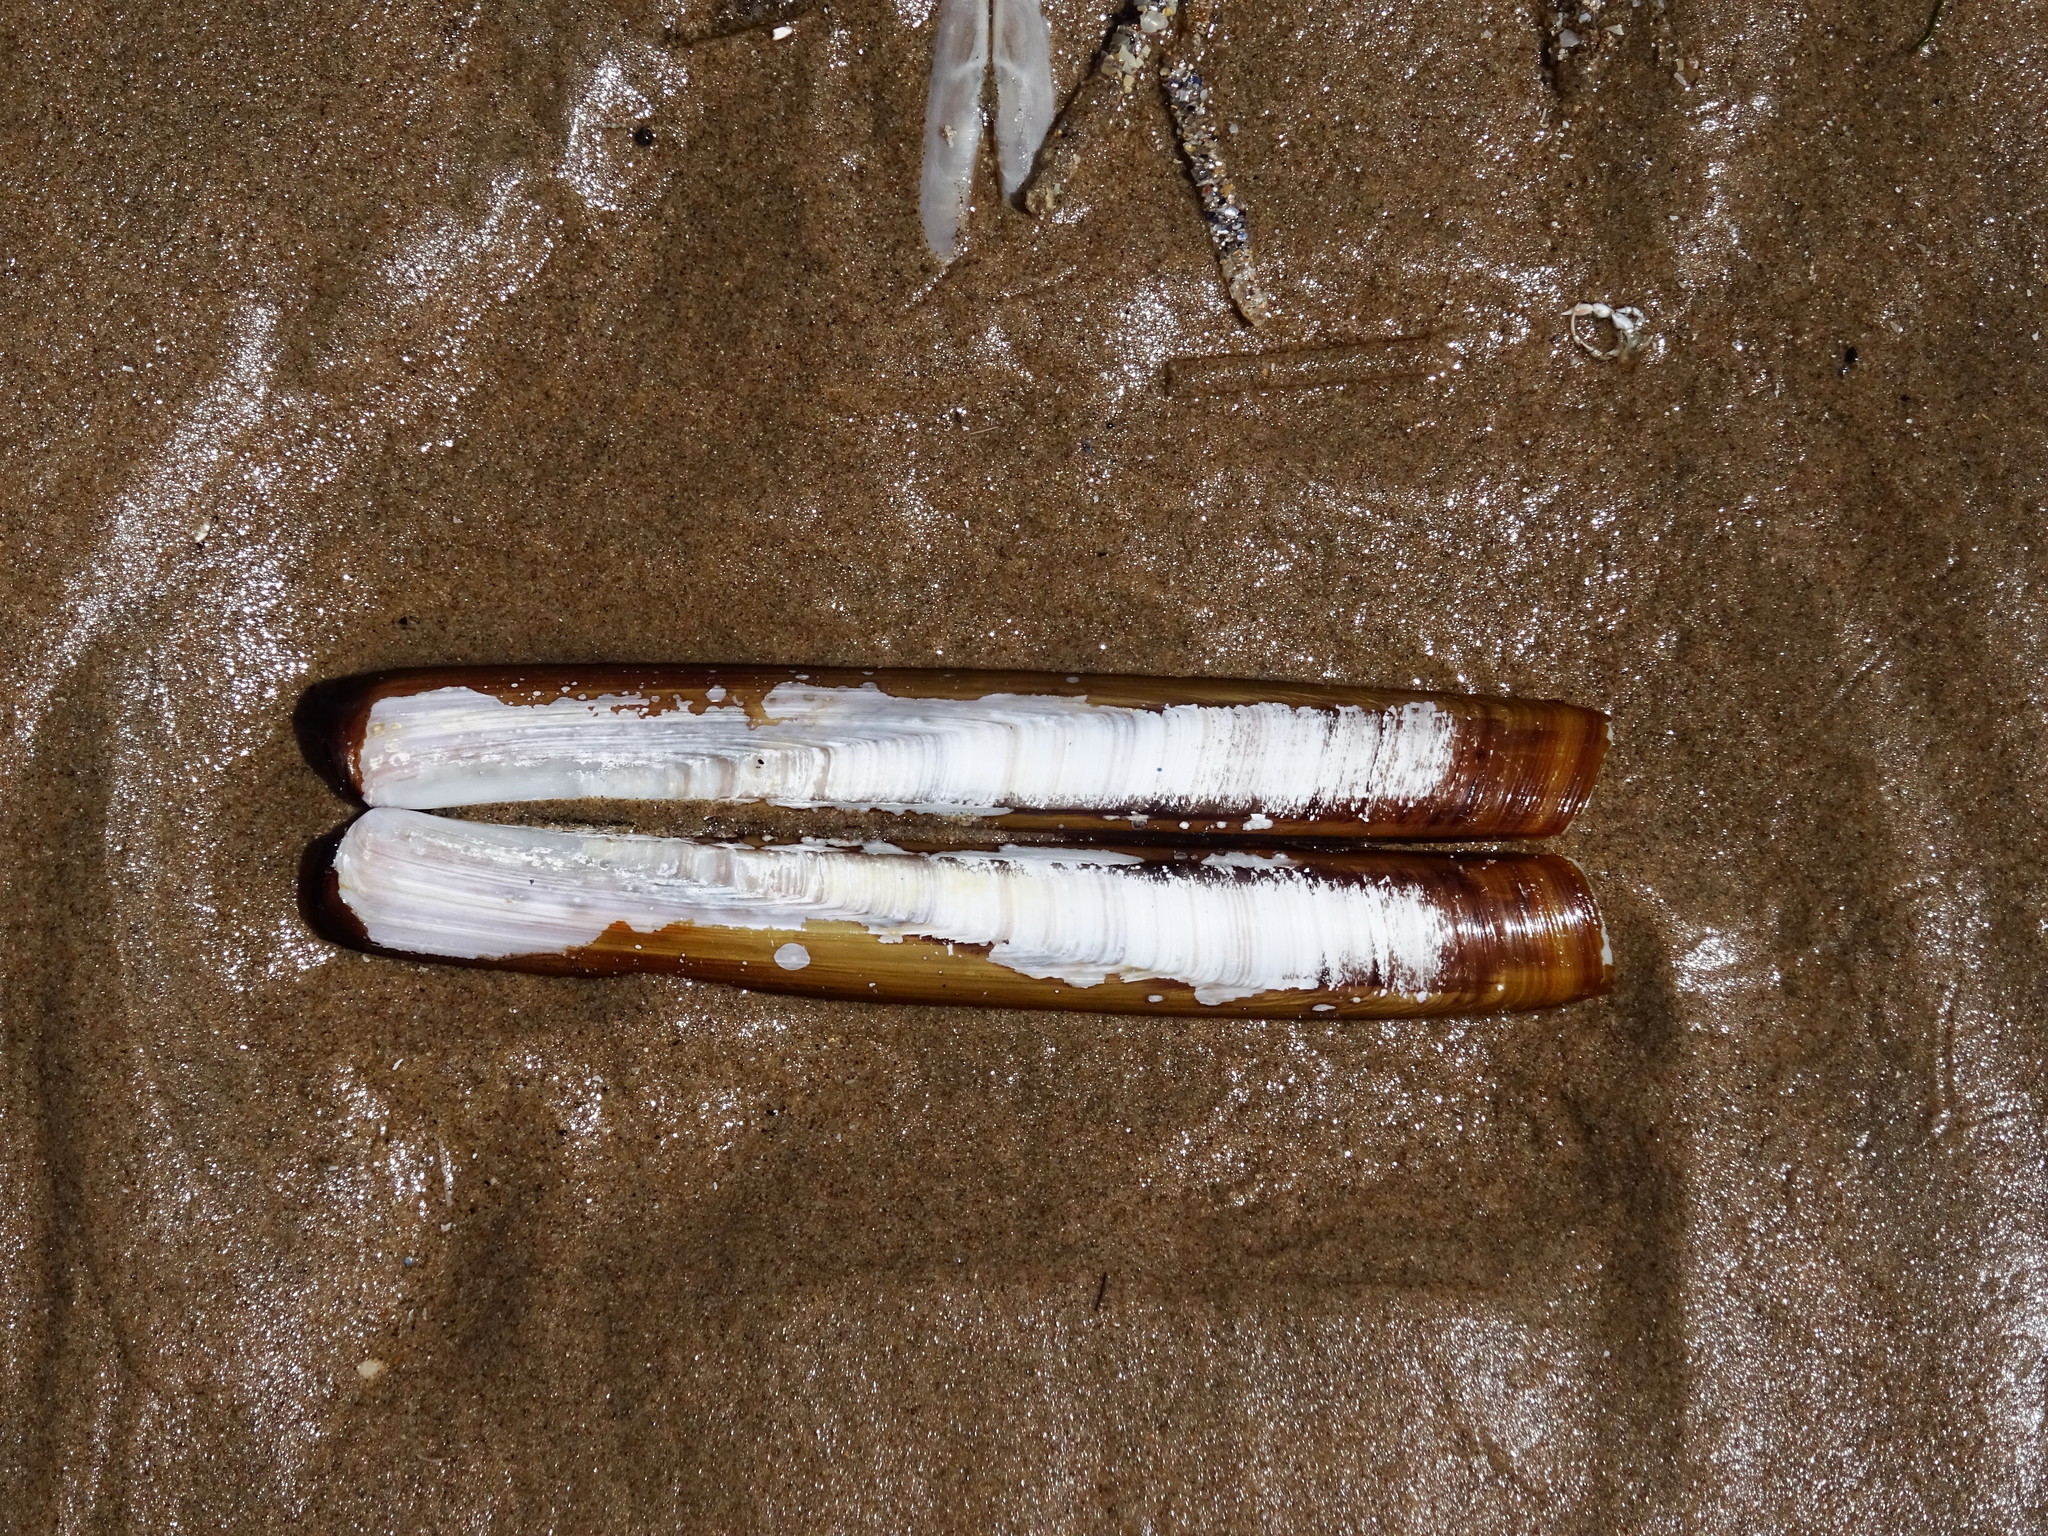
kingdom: Animalia
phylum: Mollusca
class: Bivalvia
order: Adapedonta
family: Pharidae
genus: Ensis
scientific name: Ensis siliqua
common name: Pod razor shell
